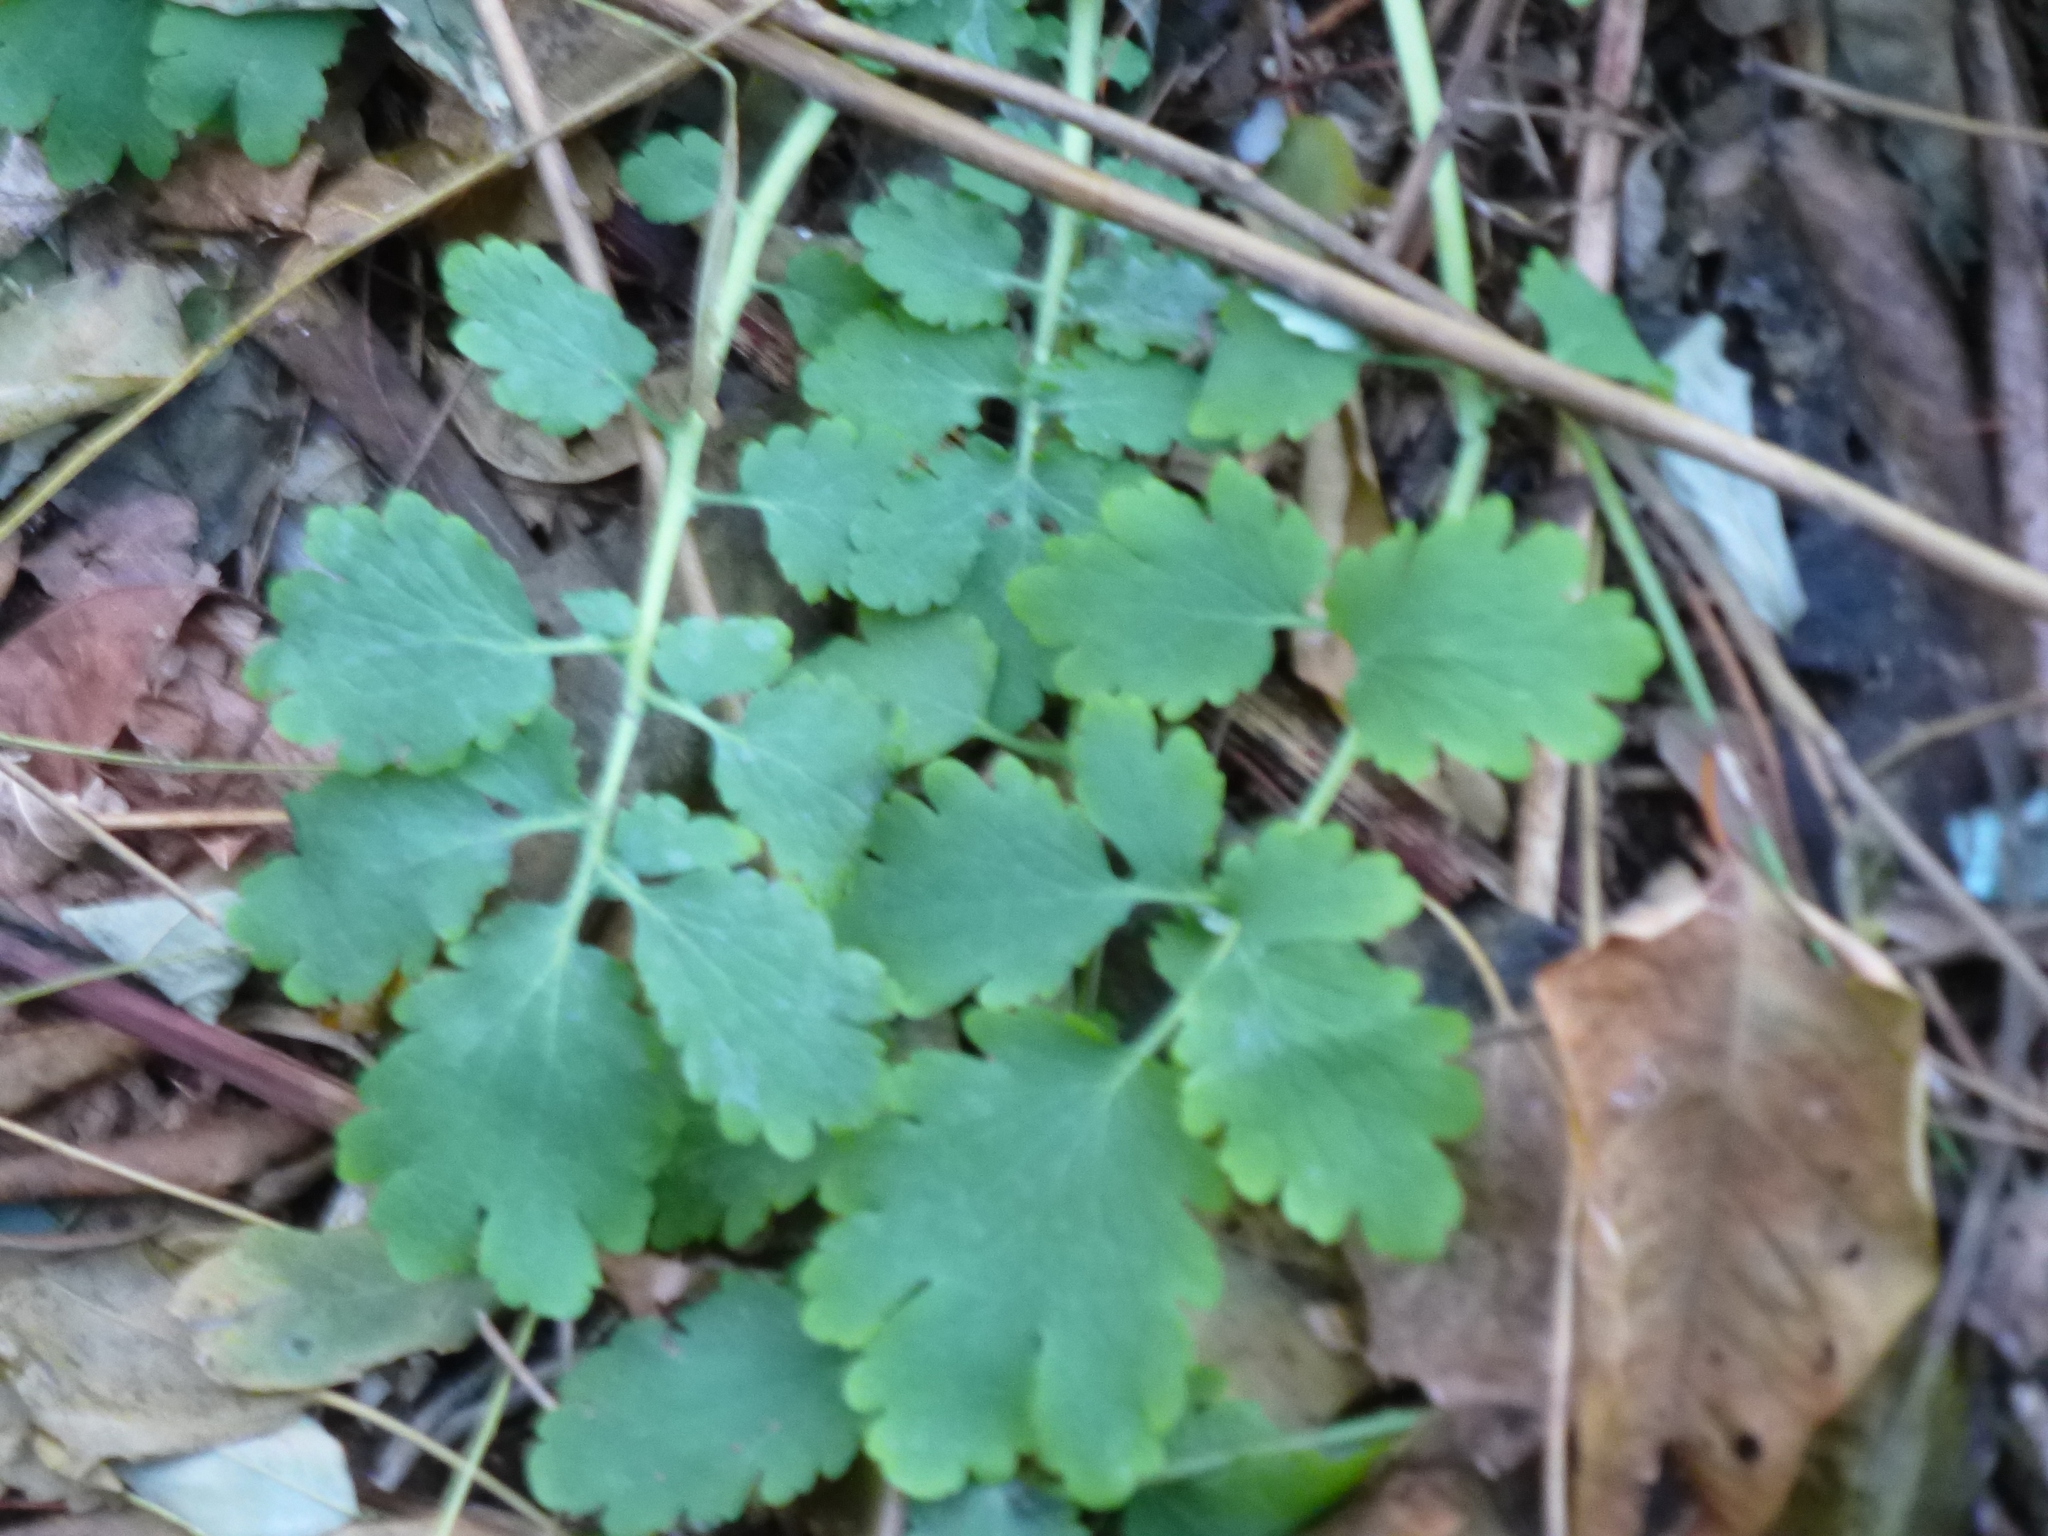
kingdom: Plantae
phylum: Tracheophyta
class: Magnoliopsida
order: Ranunculales
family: Papaveraceae
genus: Chelidonium
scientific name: Chelidonium majus
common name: Greater celandine
